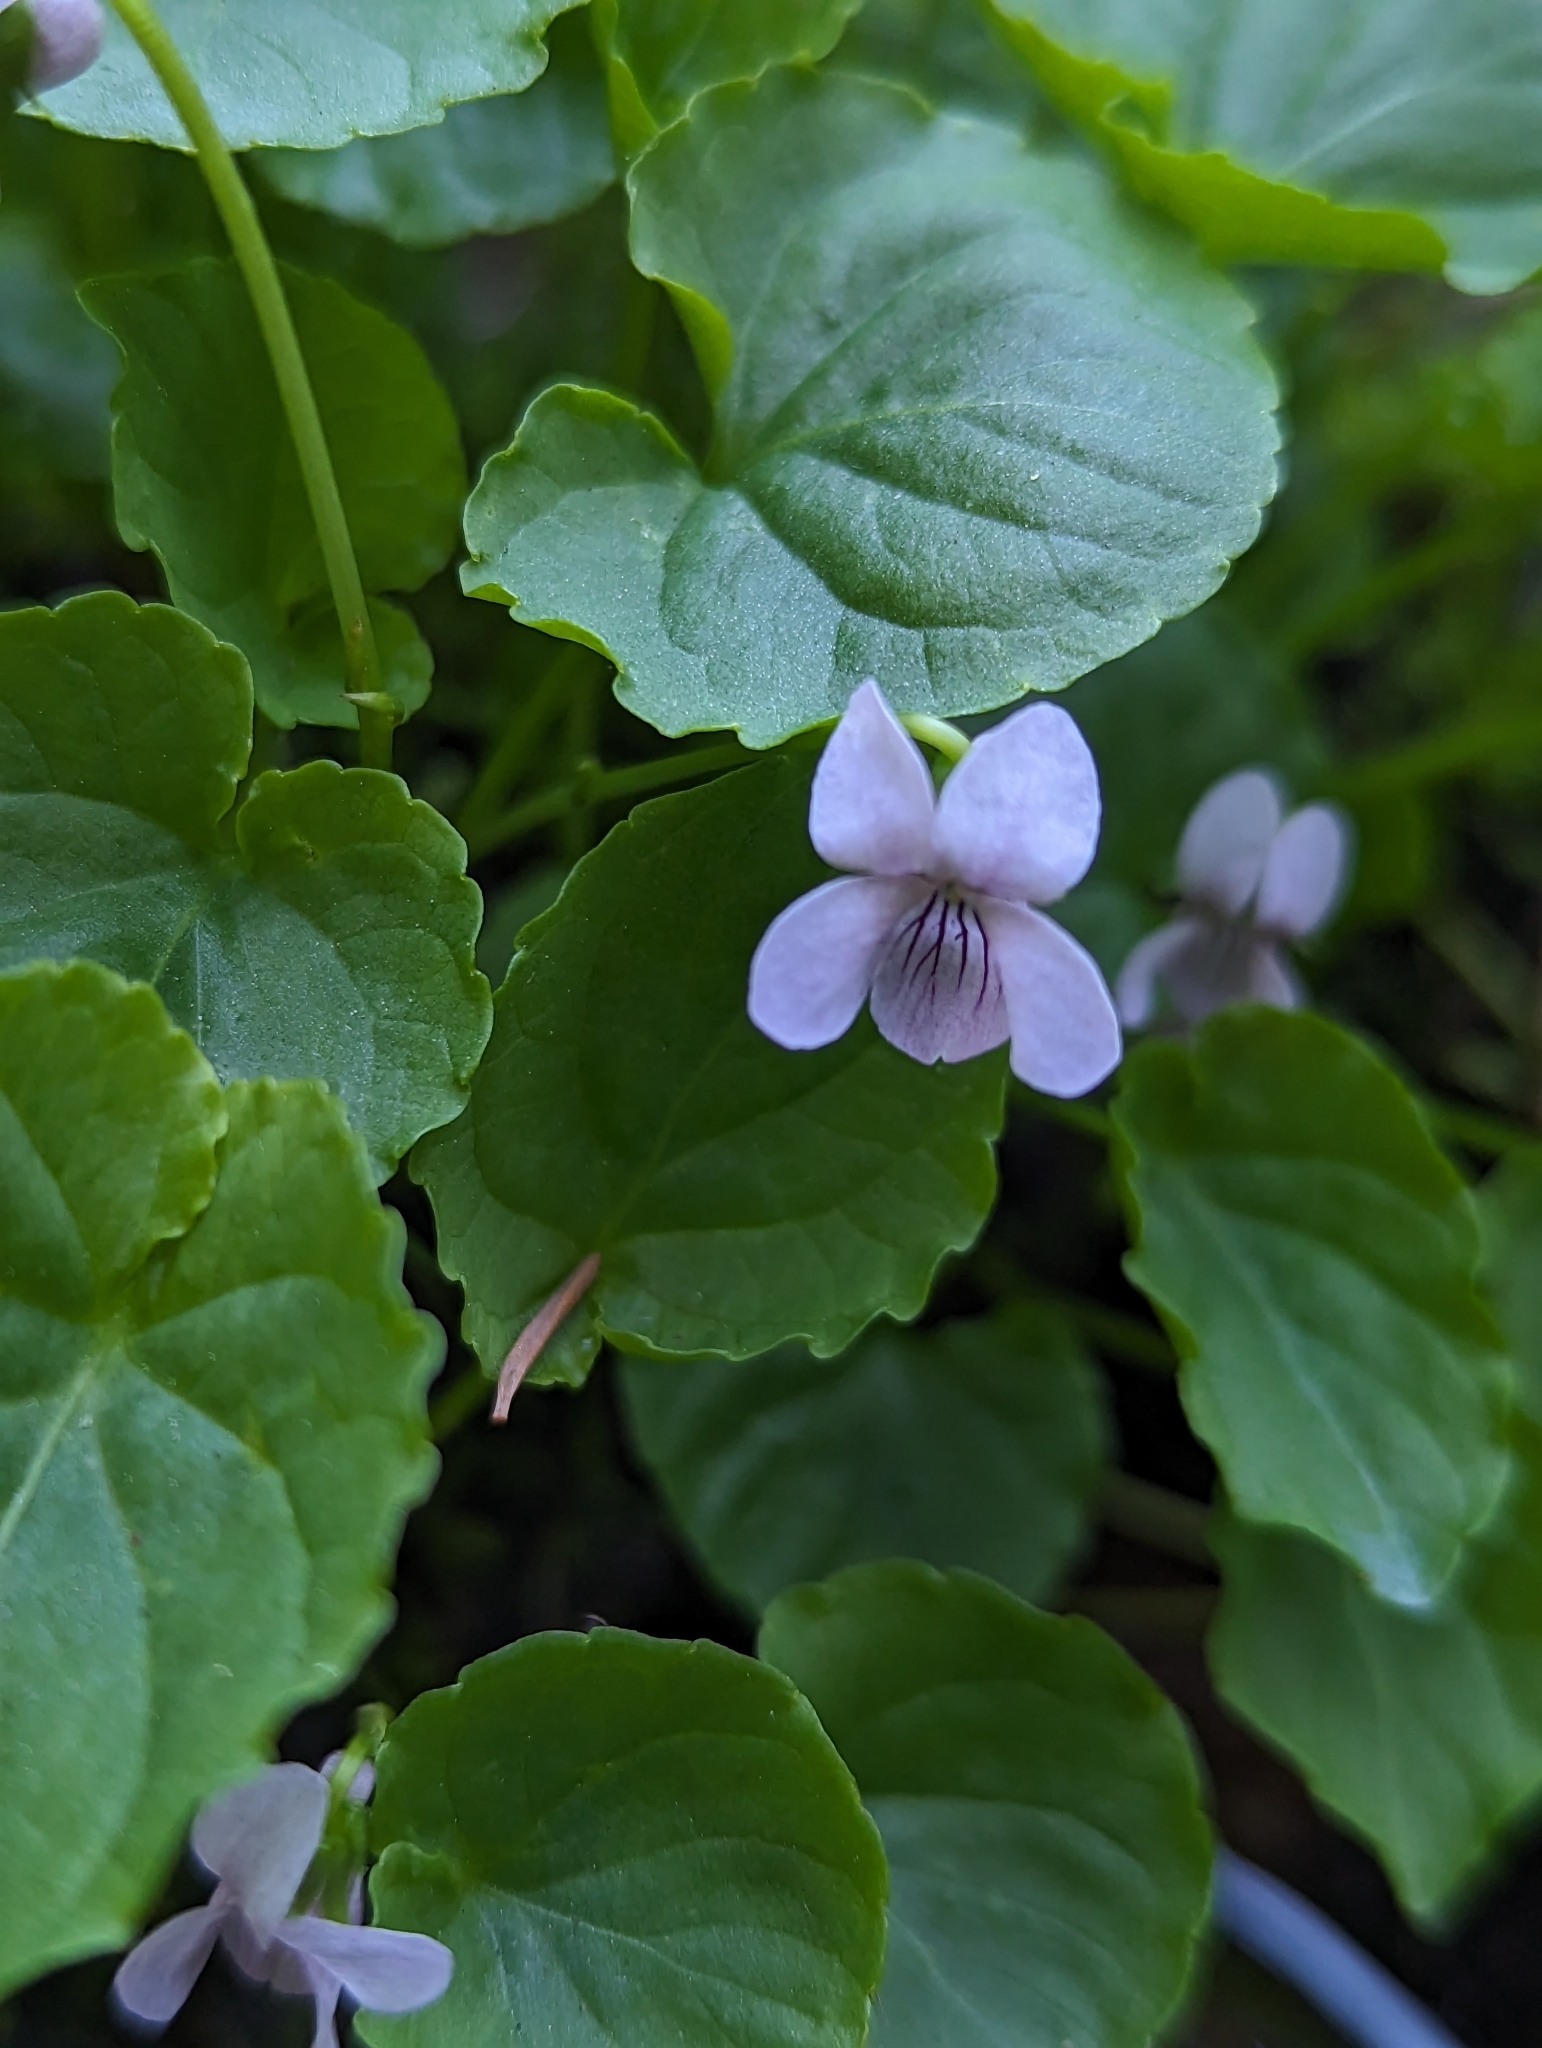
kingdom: Plantae
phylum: Tracheophyta
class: Magnoliopsida
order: Malpighiales
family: Violaceae
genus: Viola
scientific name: Viola palustris
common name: Marsh violet
